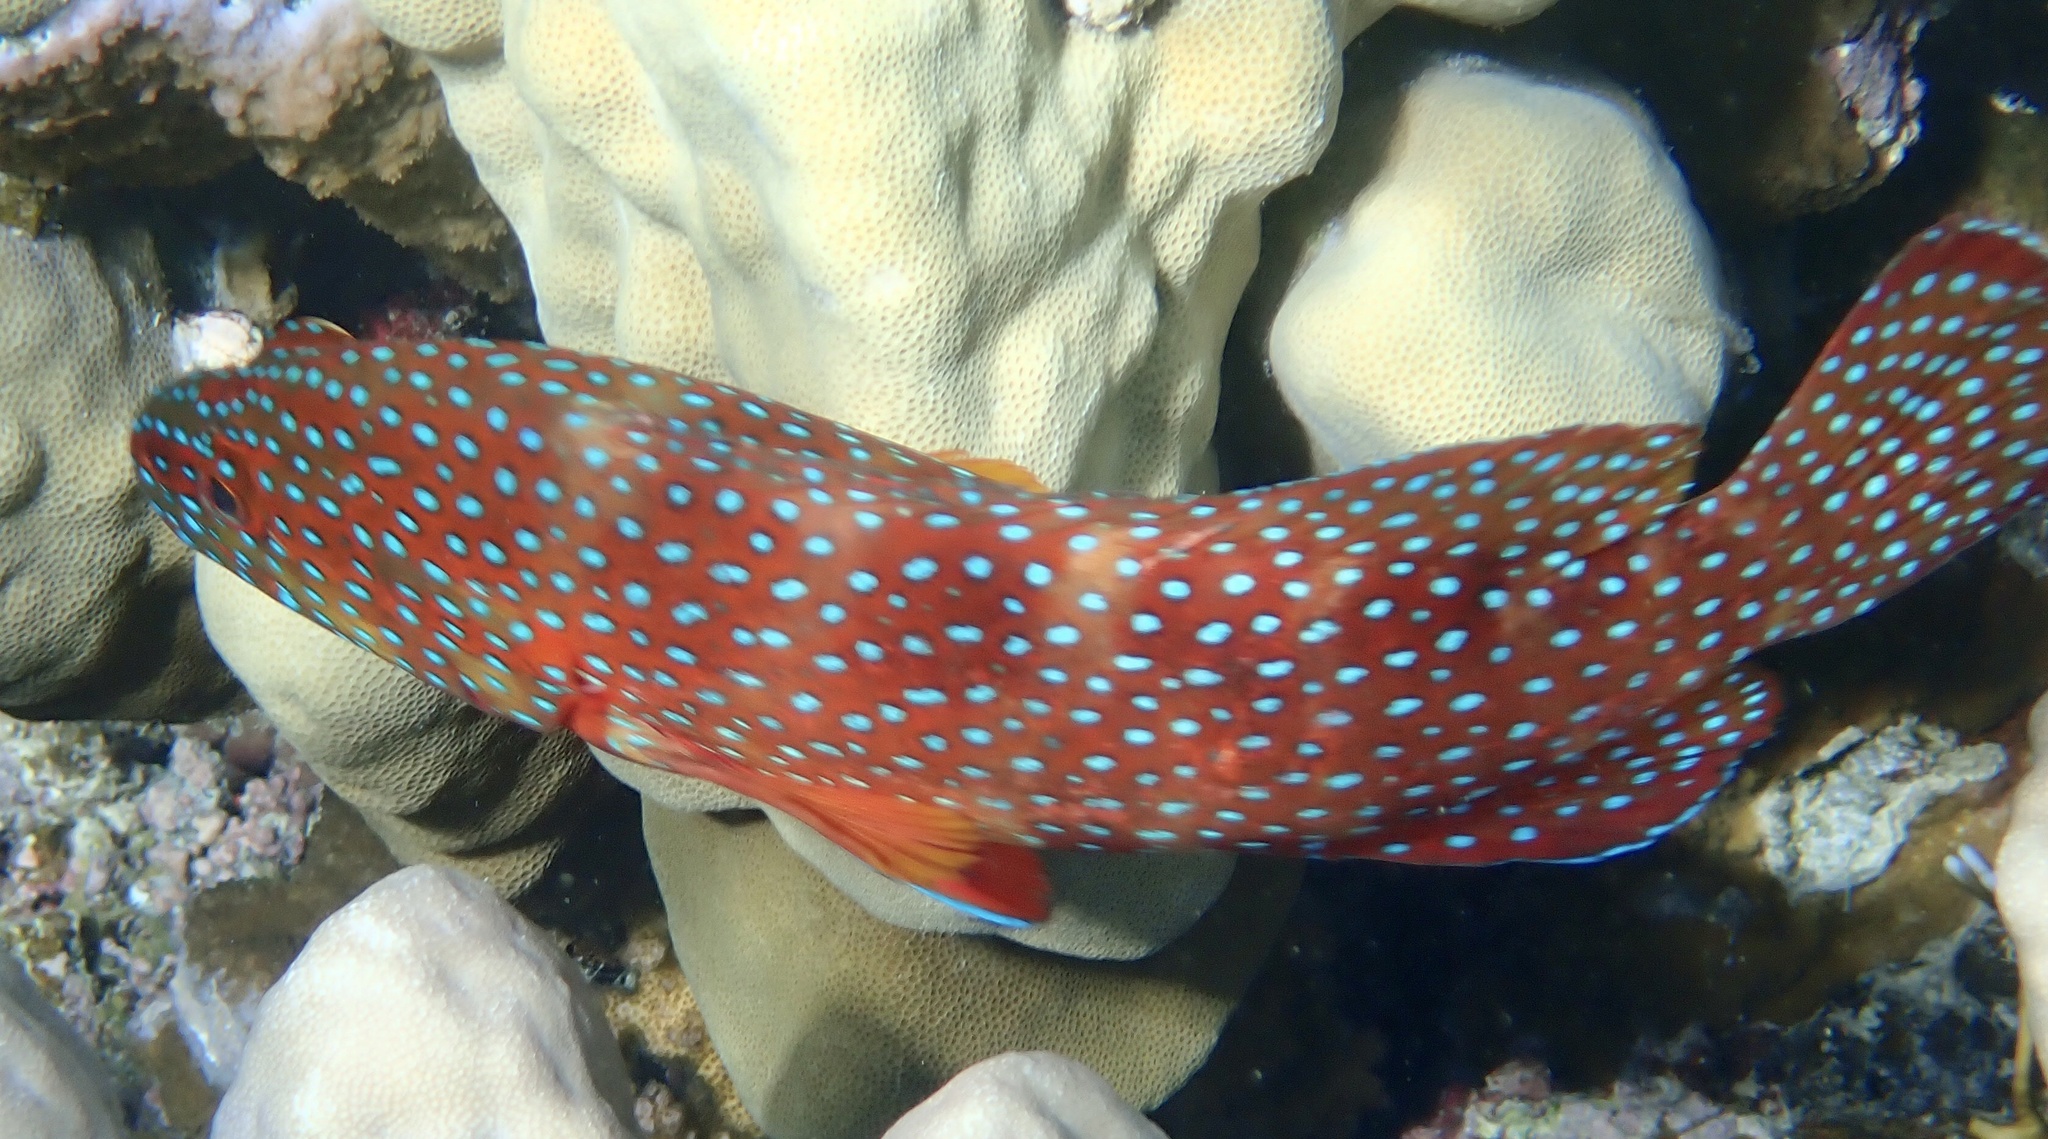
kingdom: Animalia
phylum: Chordata
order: Perciformes
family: Serranidae
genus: Cephalopholis
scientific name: Cephalopholis miniata
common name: Coral hind
